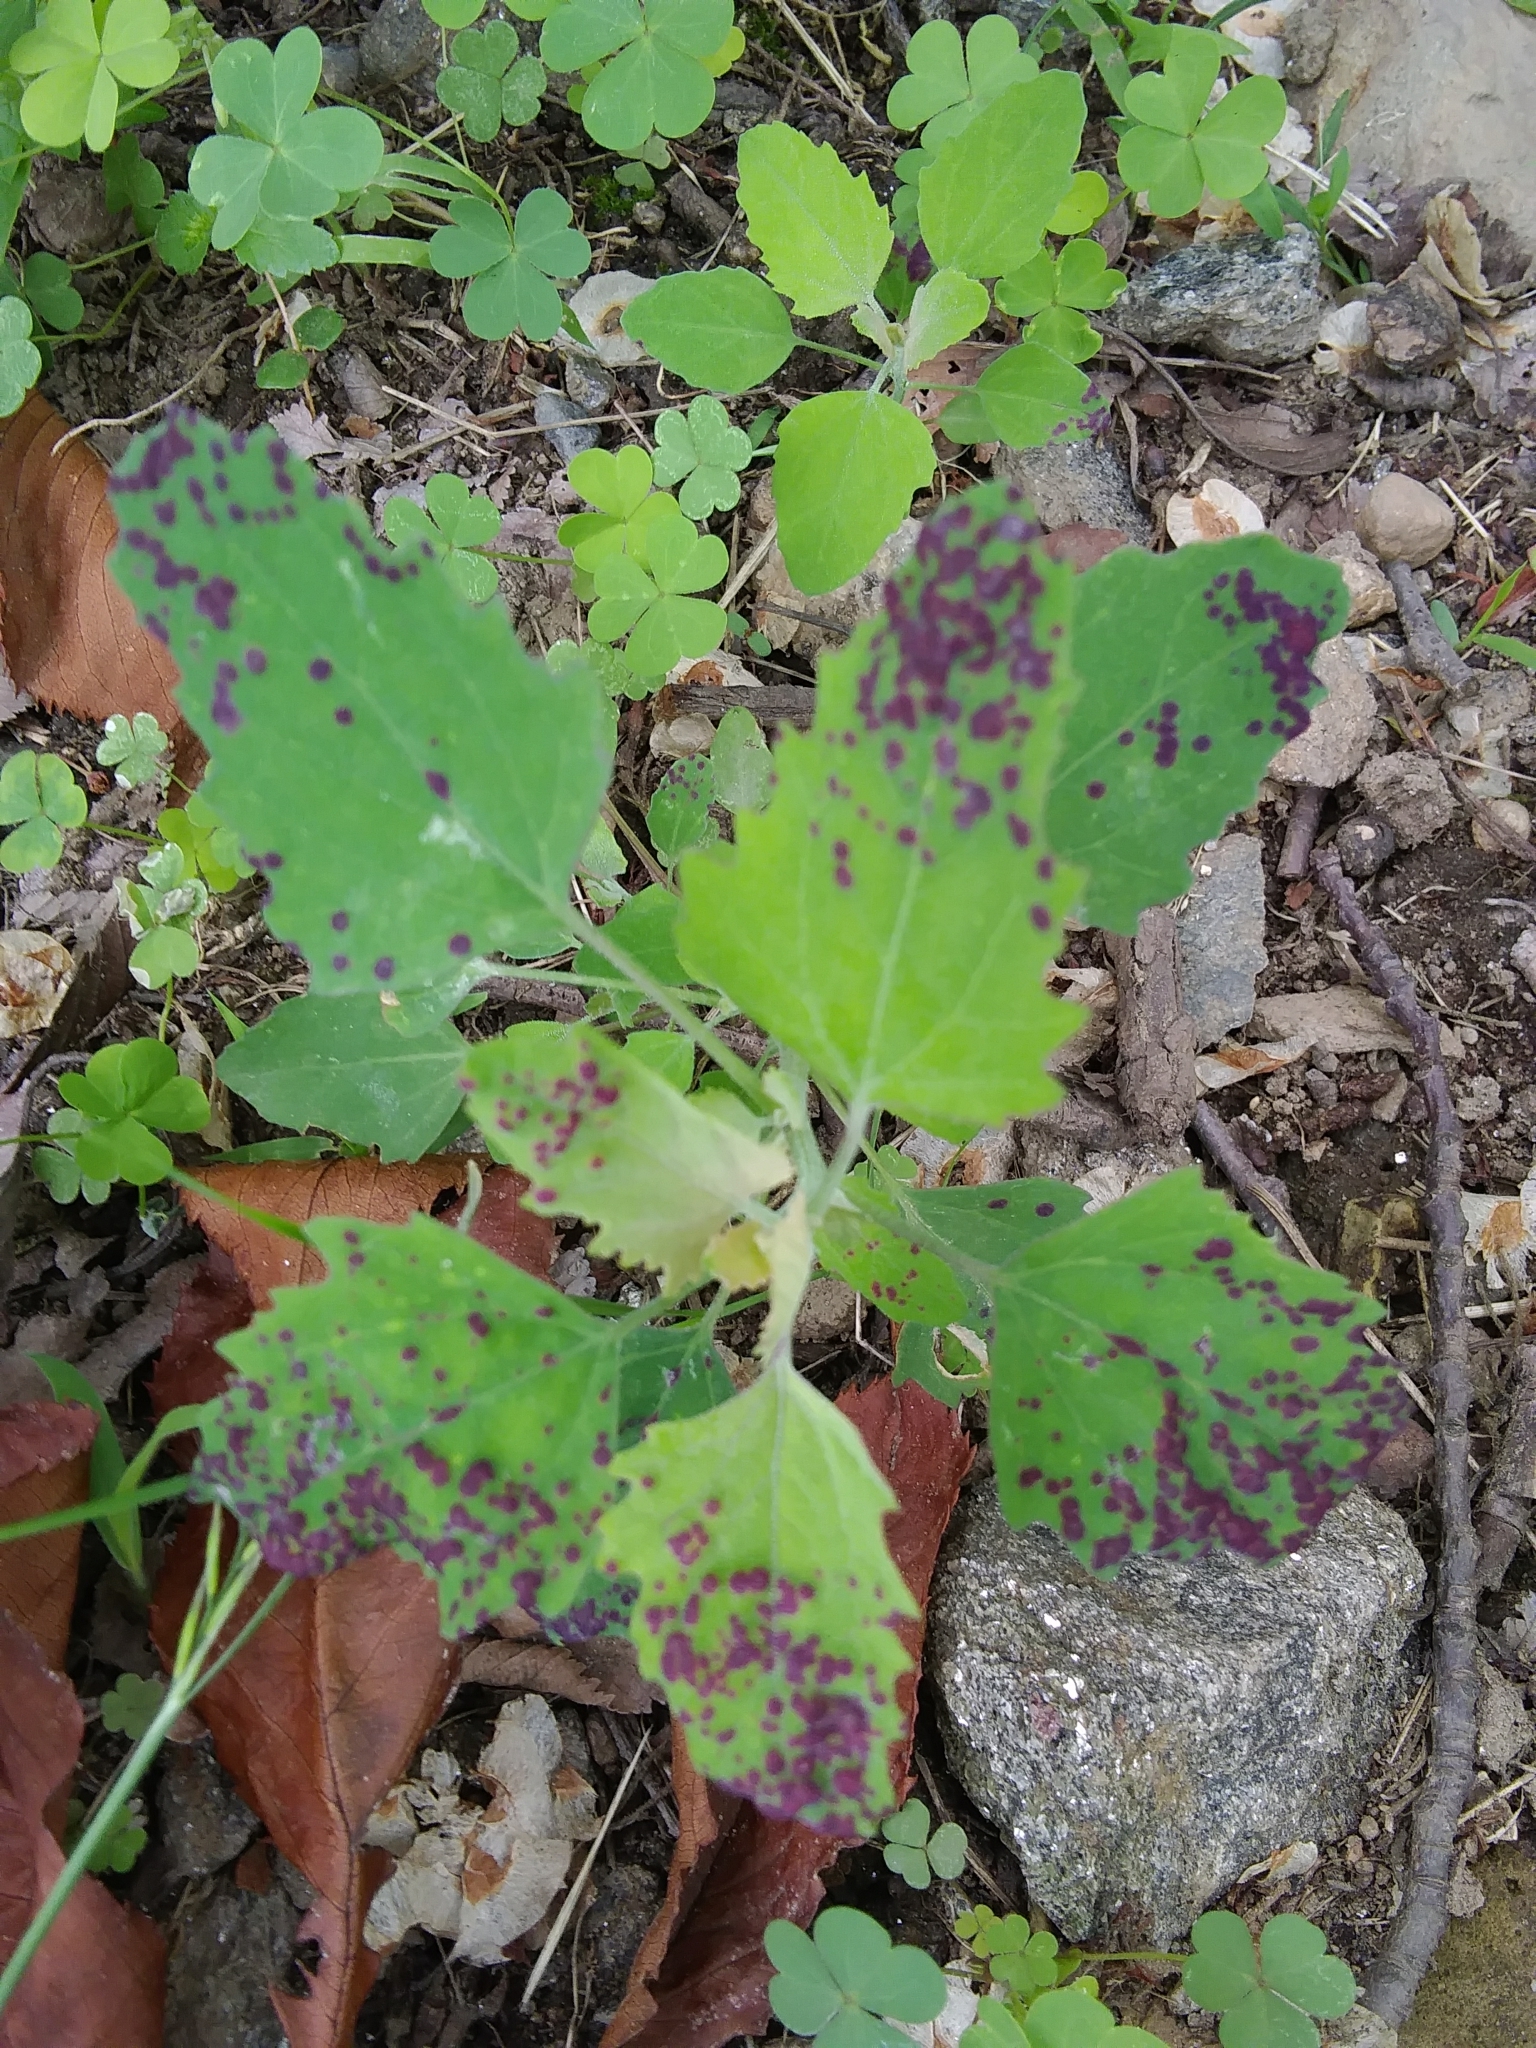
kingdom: Plantae
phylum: Tracheophyta
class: Magnoliopsida
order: Caryophyllales
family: Amaranthaceae
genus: Chenopodium
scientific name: Chenopodium album
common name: Fat-hen
